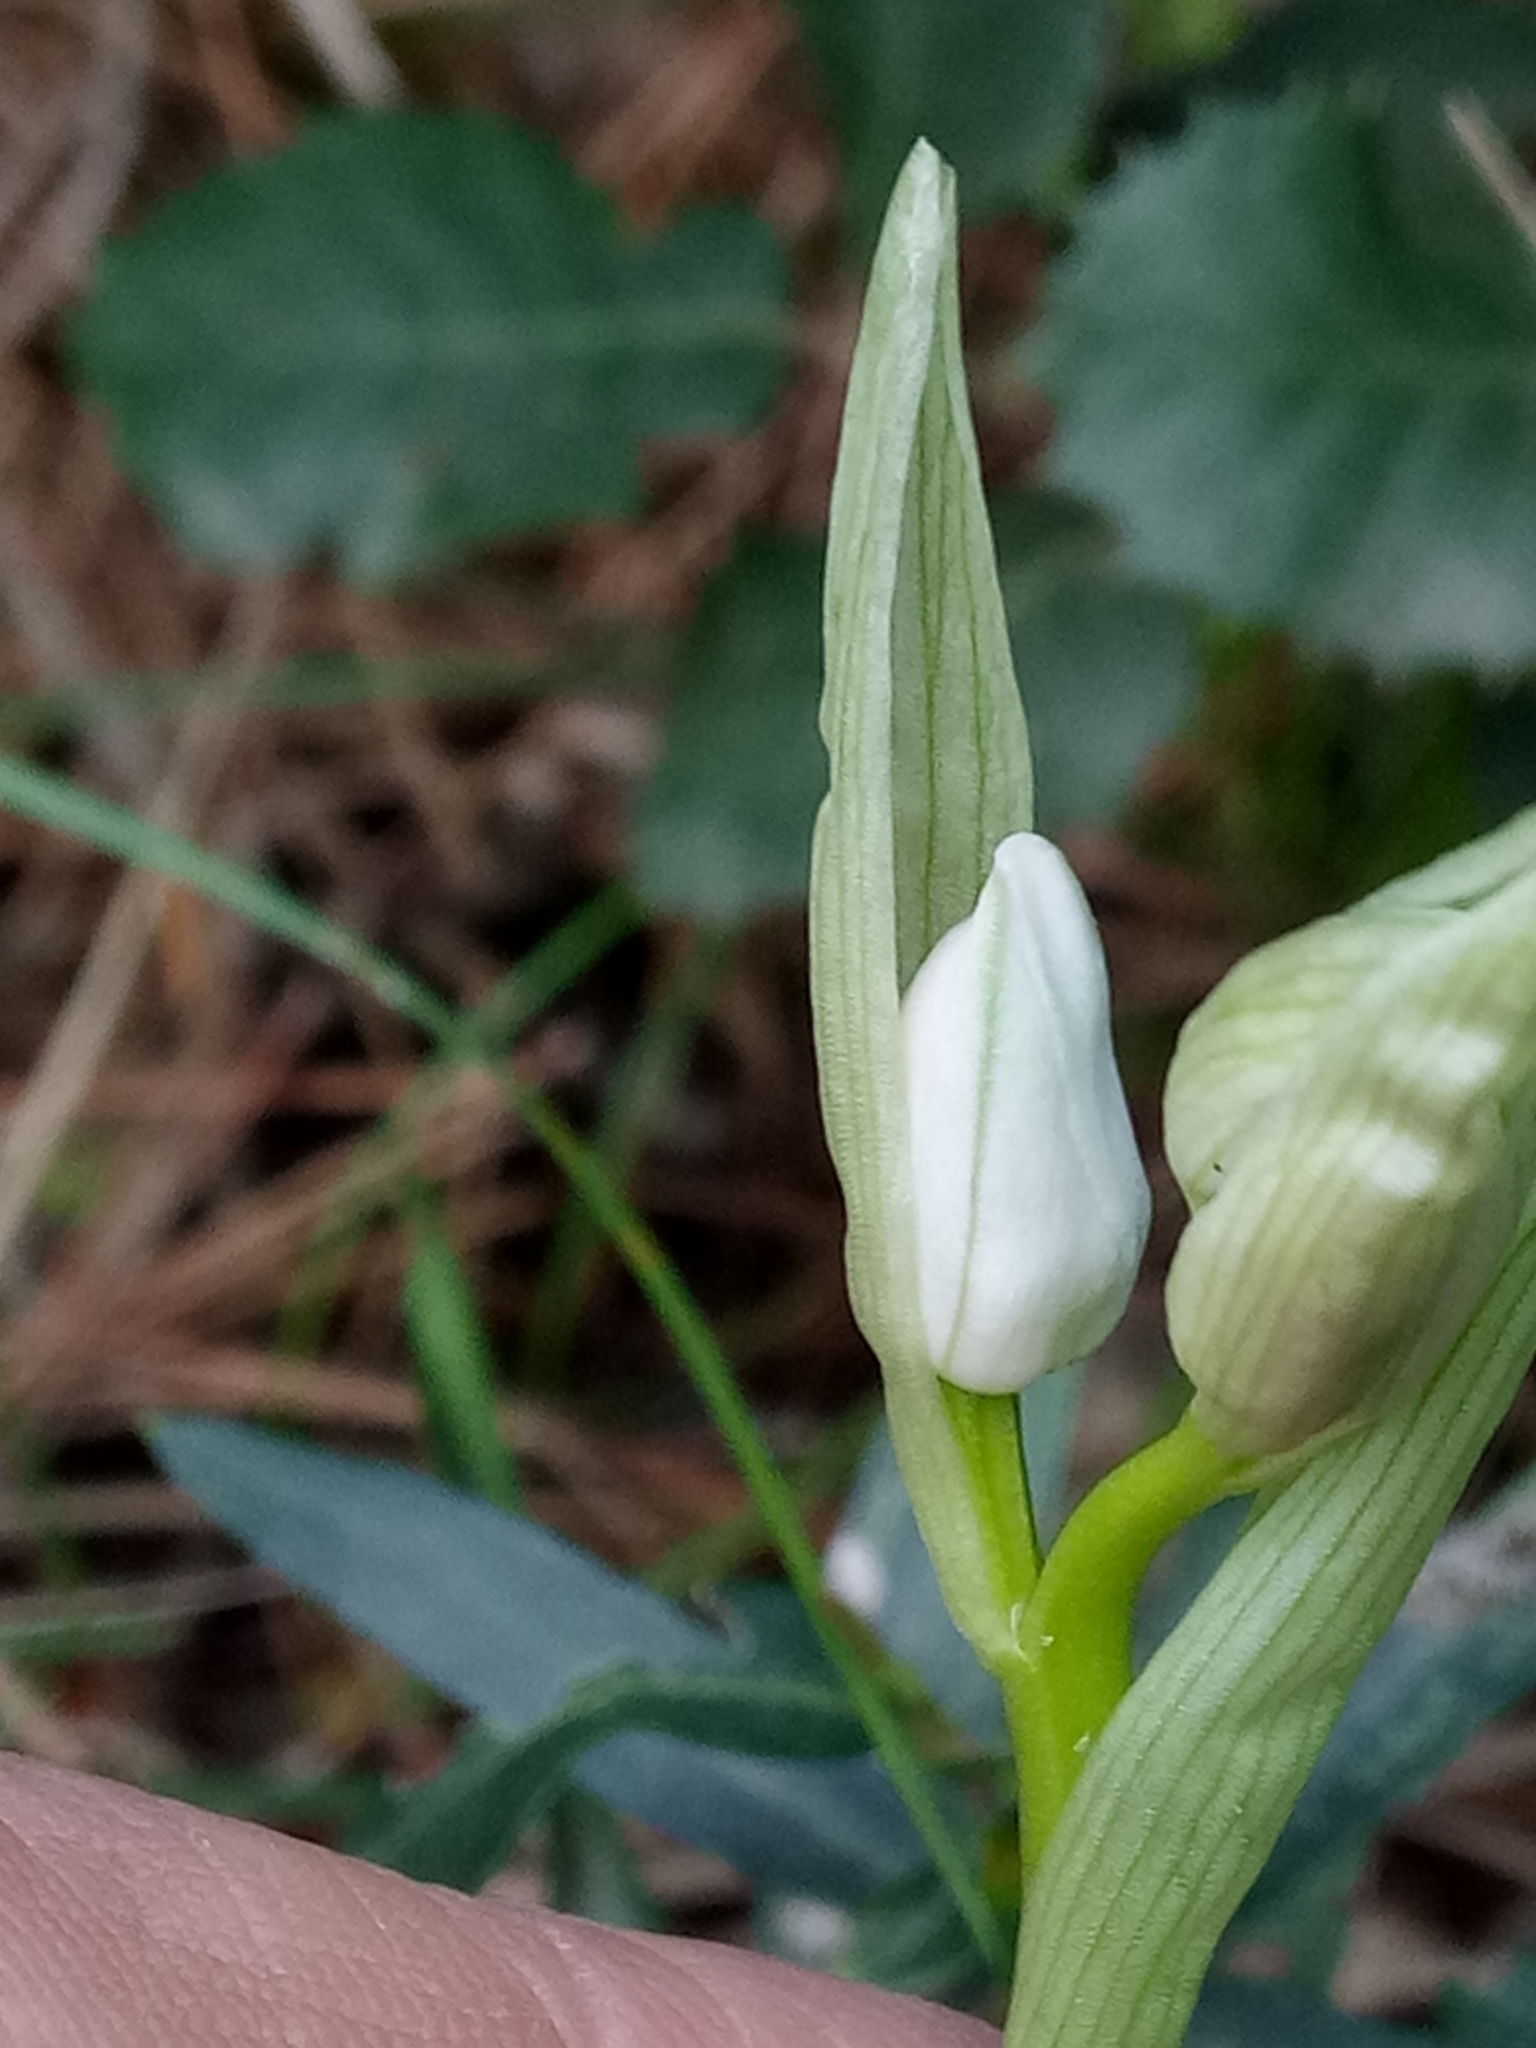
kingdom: Plantae
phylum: Tracheophyta
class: Liliopsida
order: Asparagales
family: Orchidaceae
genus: Ophrys
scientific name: Ophrys tenthredinifera
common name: Sawfly orchid
